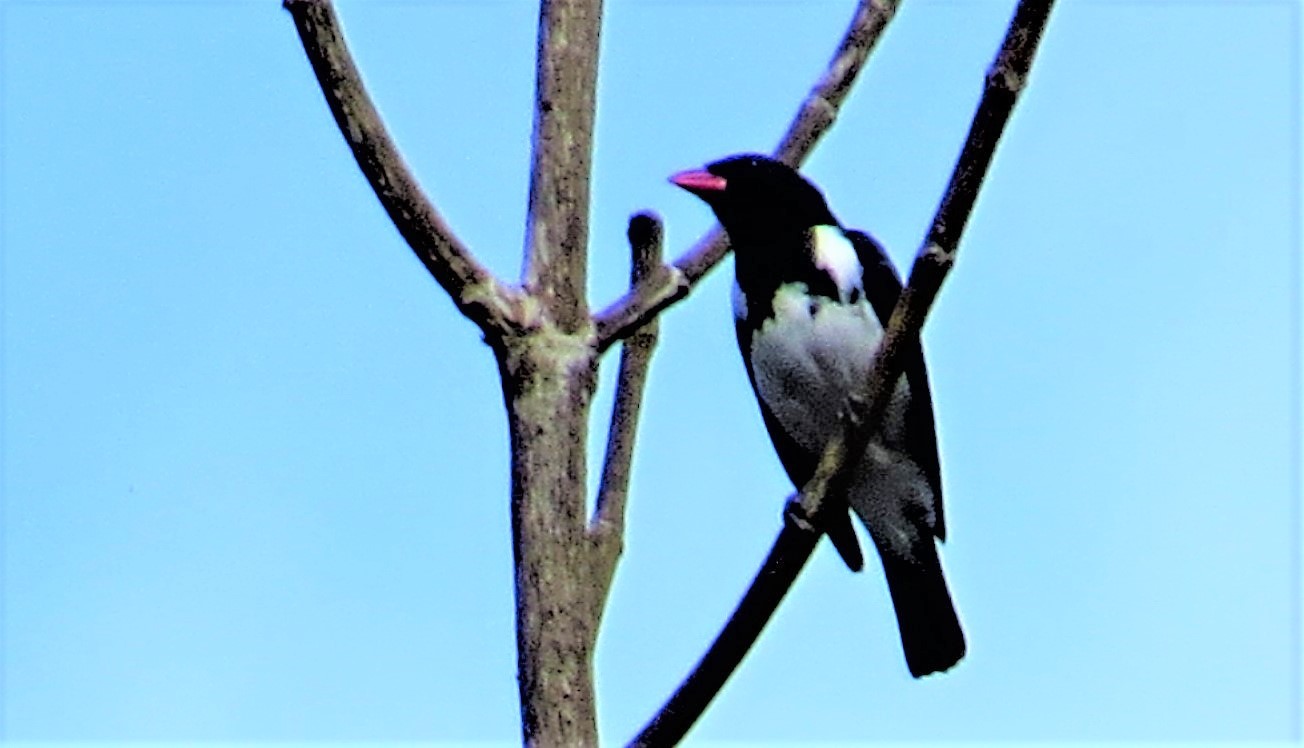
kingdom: Animalia
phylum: Chordata
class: Aves
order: Passeriformes
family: Mitrospingidae
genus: Lamprospiza
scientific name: Lamprospiza melanoleuca
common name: Red-billed pied tanager
